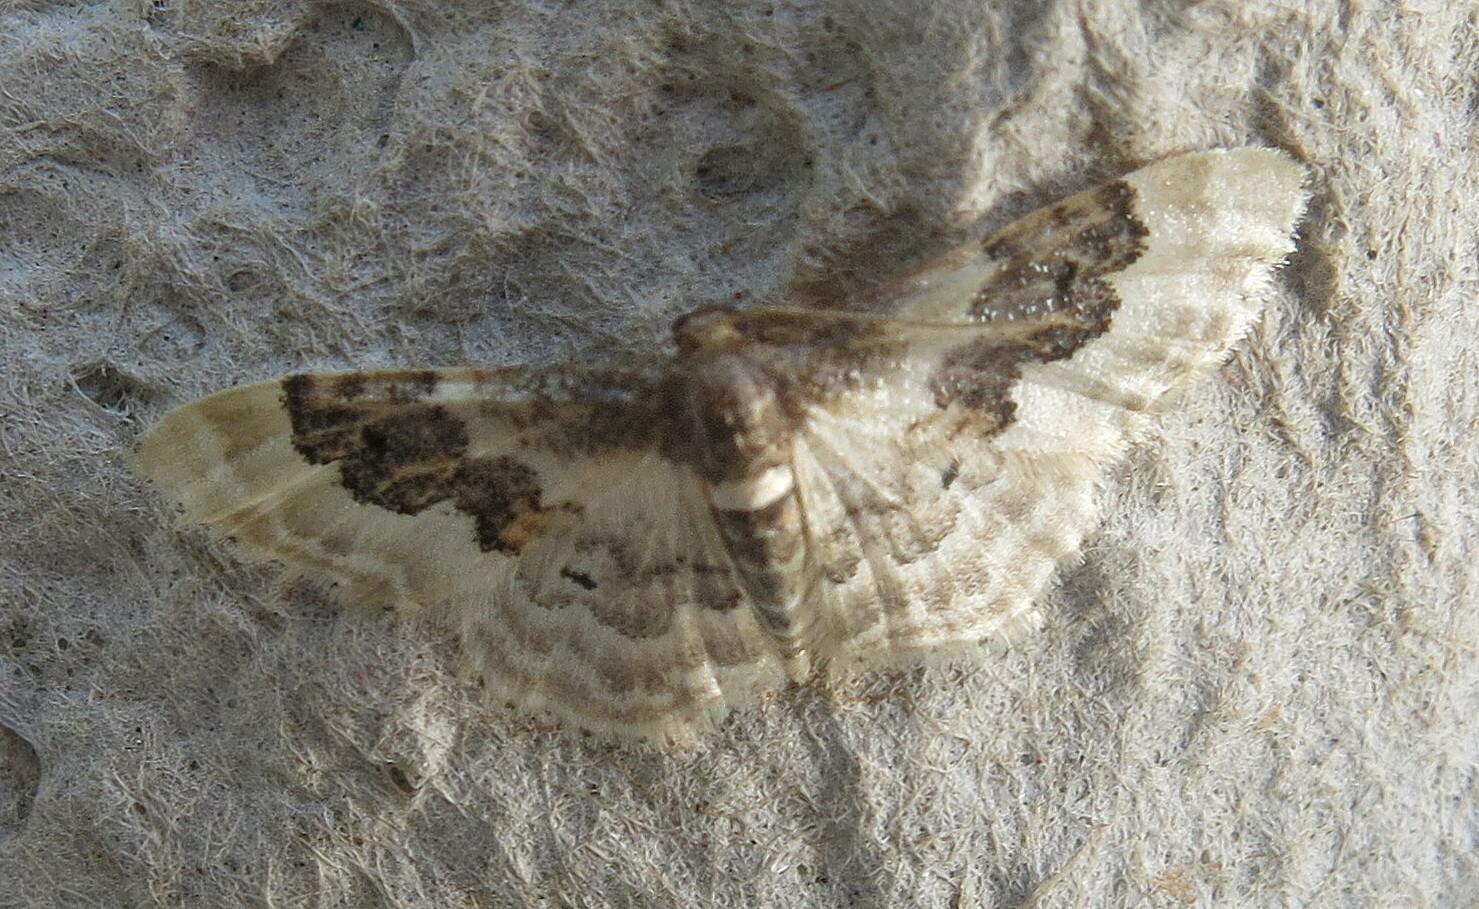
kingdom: Animalia
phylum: Arthropoda
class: Insecta
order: Lepidoptera
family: Geometridae
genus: Idaea
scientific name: Idaea rusticata
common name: Least carpet
